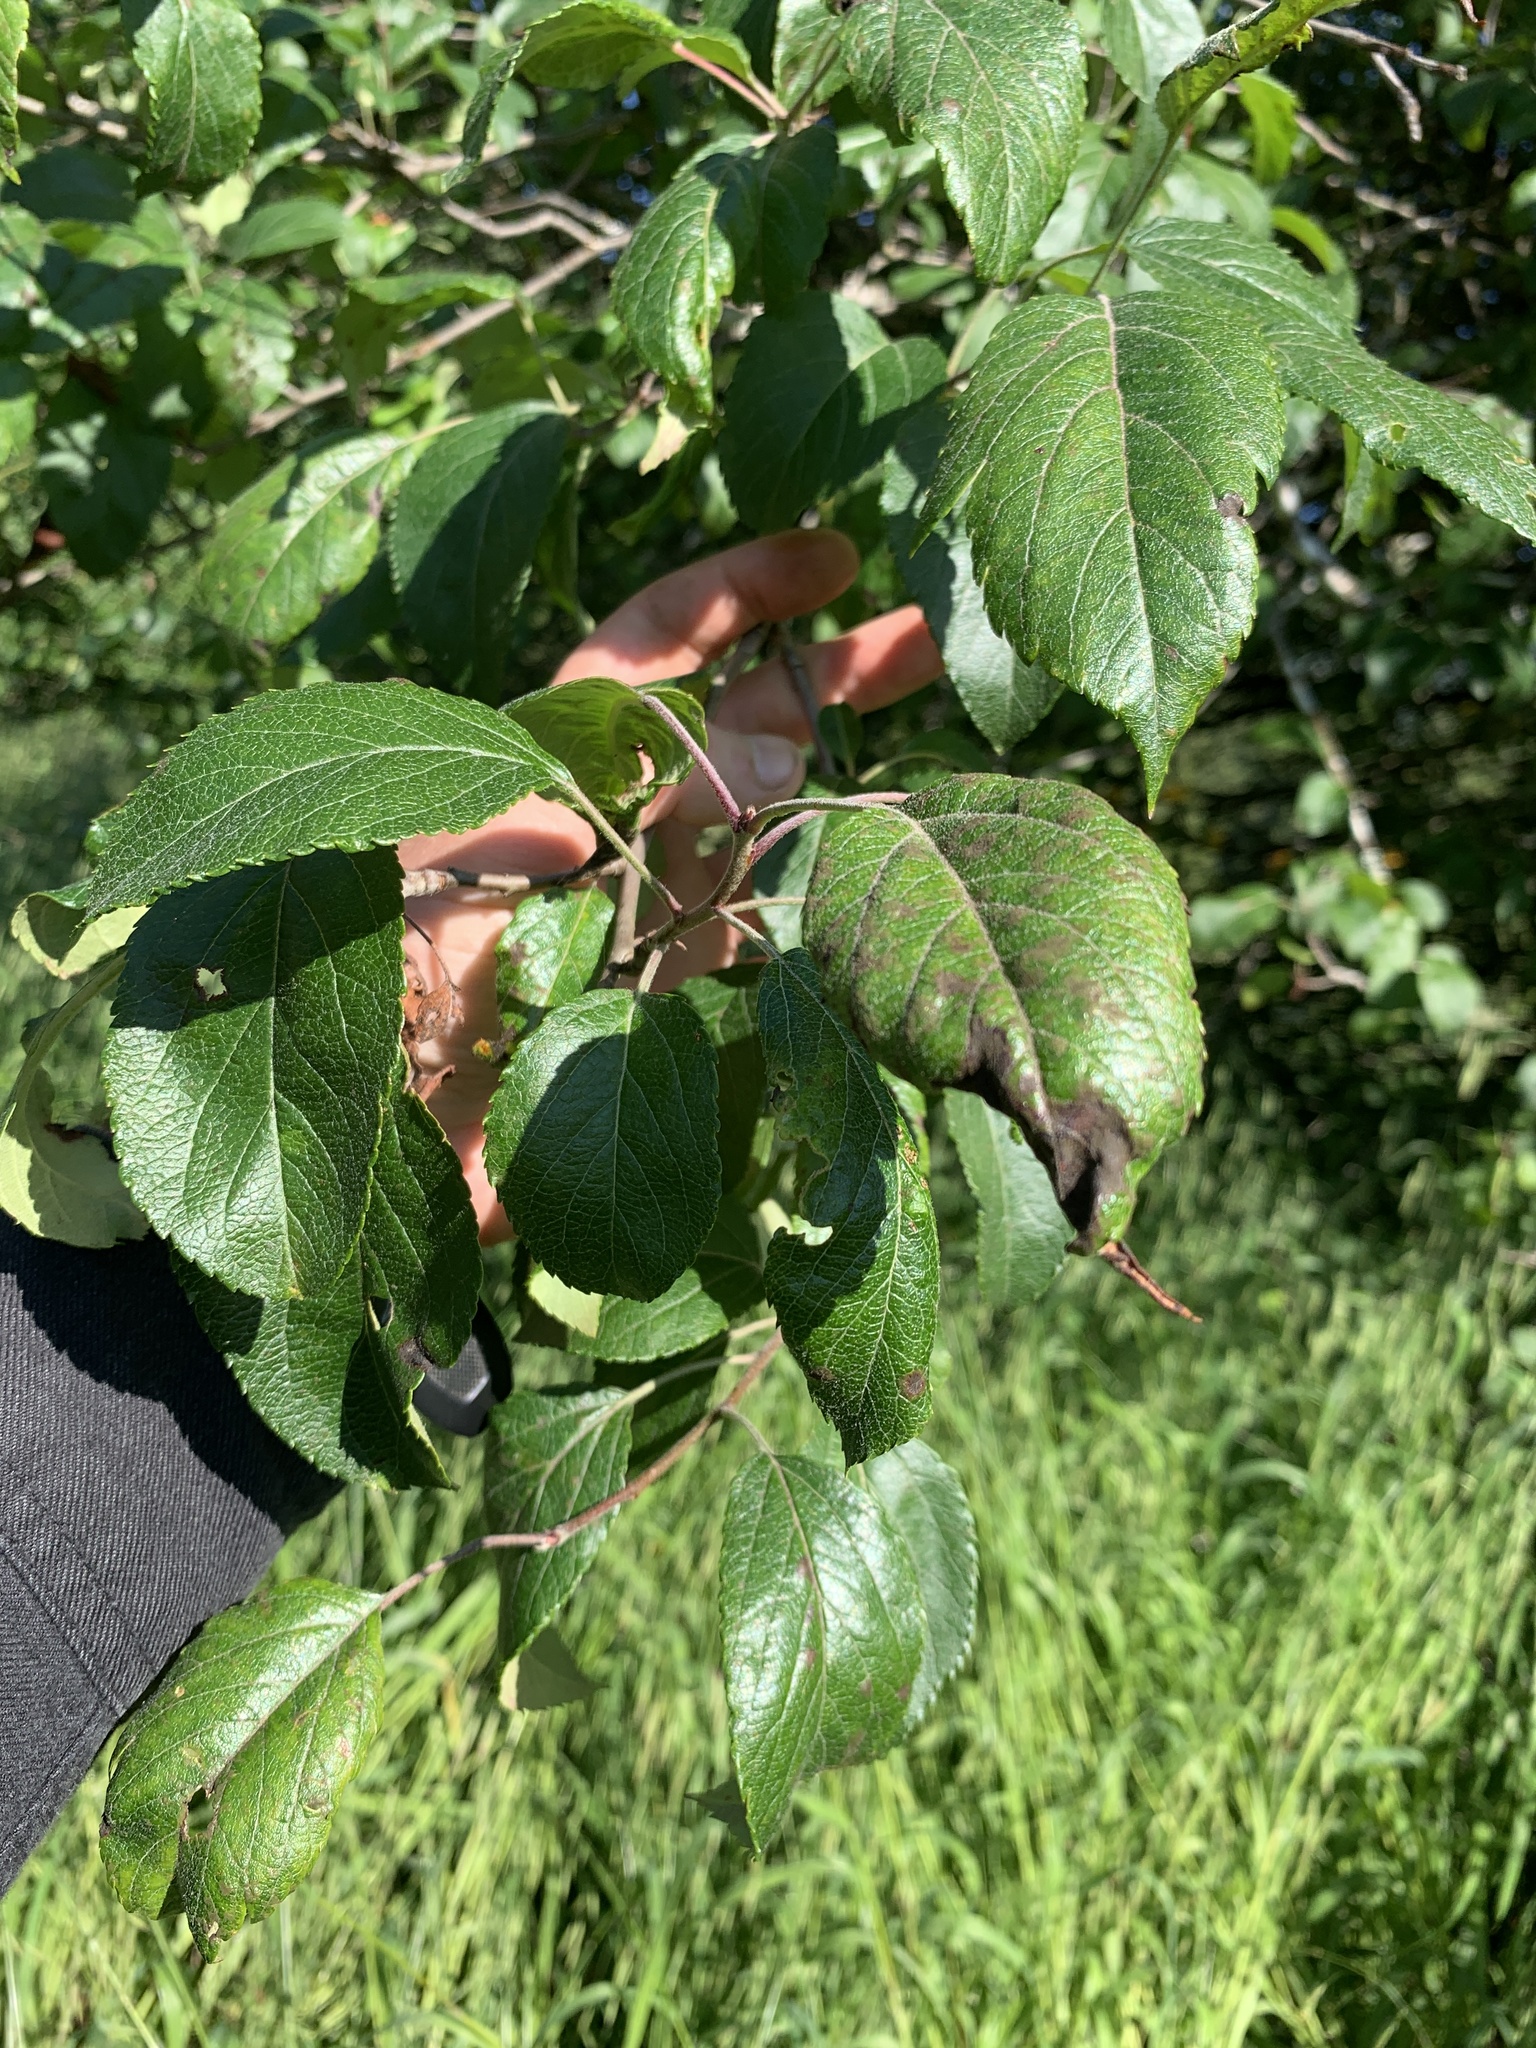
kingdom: Plantae
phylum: Tracheophyta
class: Magnoliopsida
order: Rosales
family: Rosaceae
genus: Malus
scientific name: Malus fusca
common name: Oregon crab apple
